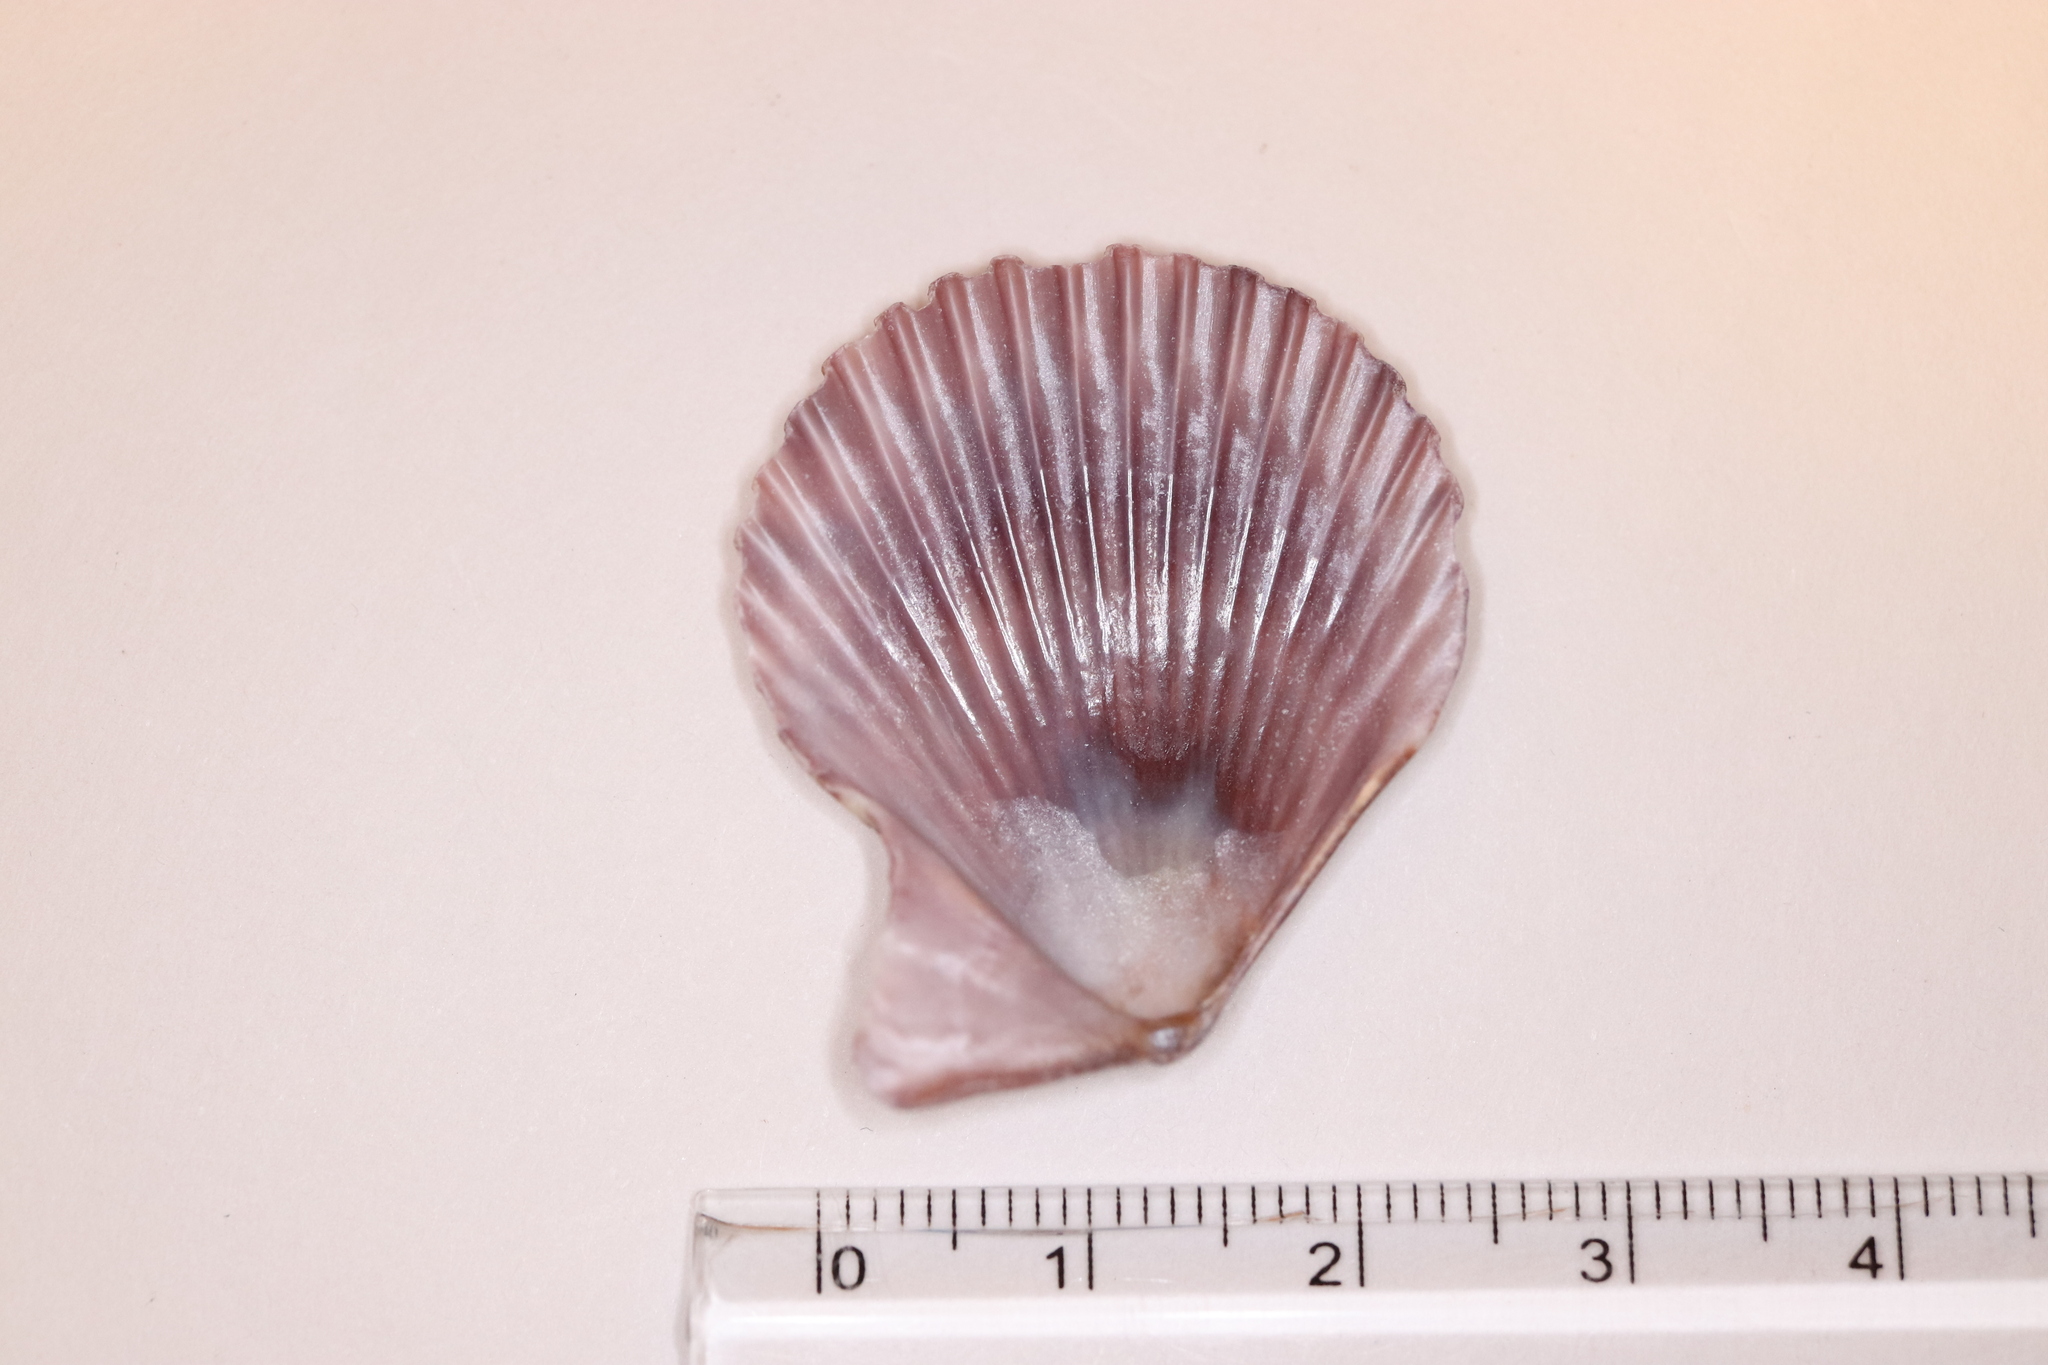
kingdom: Animalia
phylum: Mollusca
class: Bivalvia
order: Pectinida
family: Pectinidae
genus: Mimachlamys
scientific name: Mimachlamys crassicostata
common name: Noble scallop
